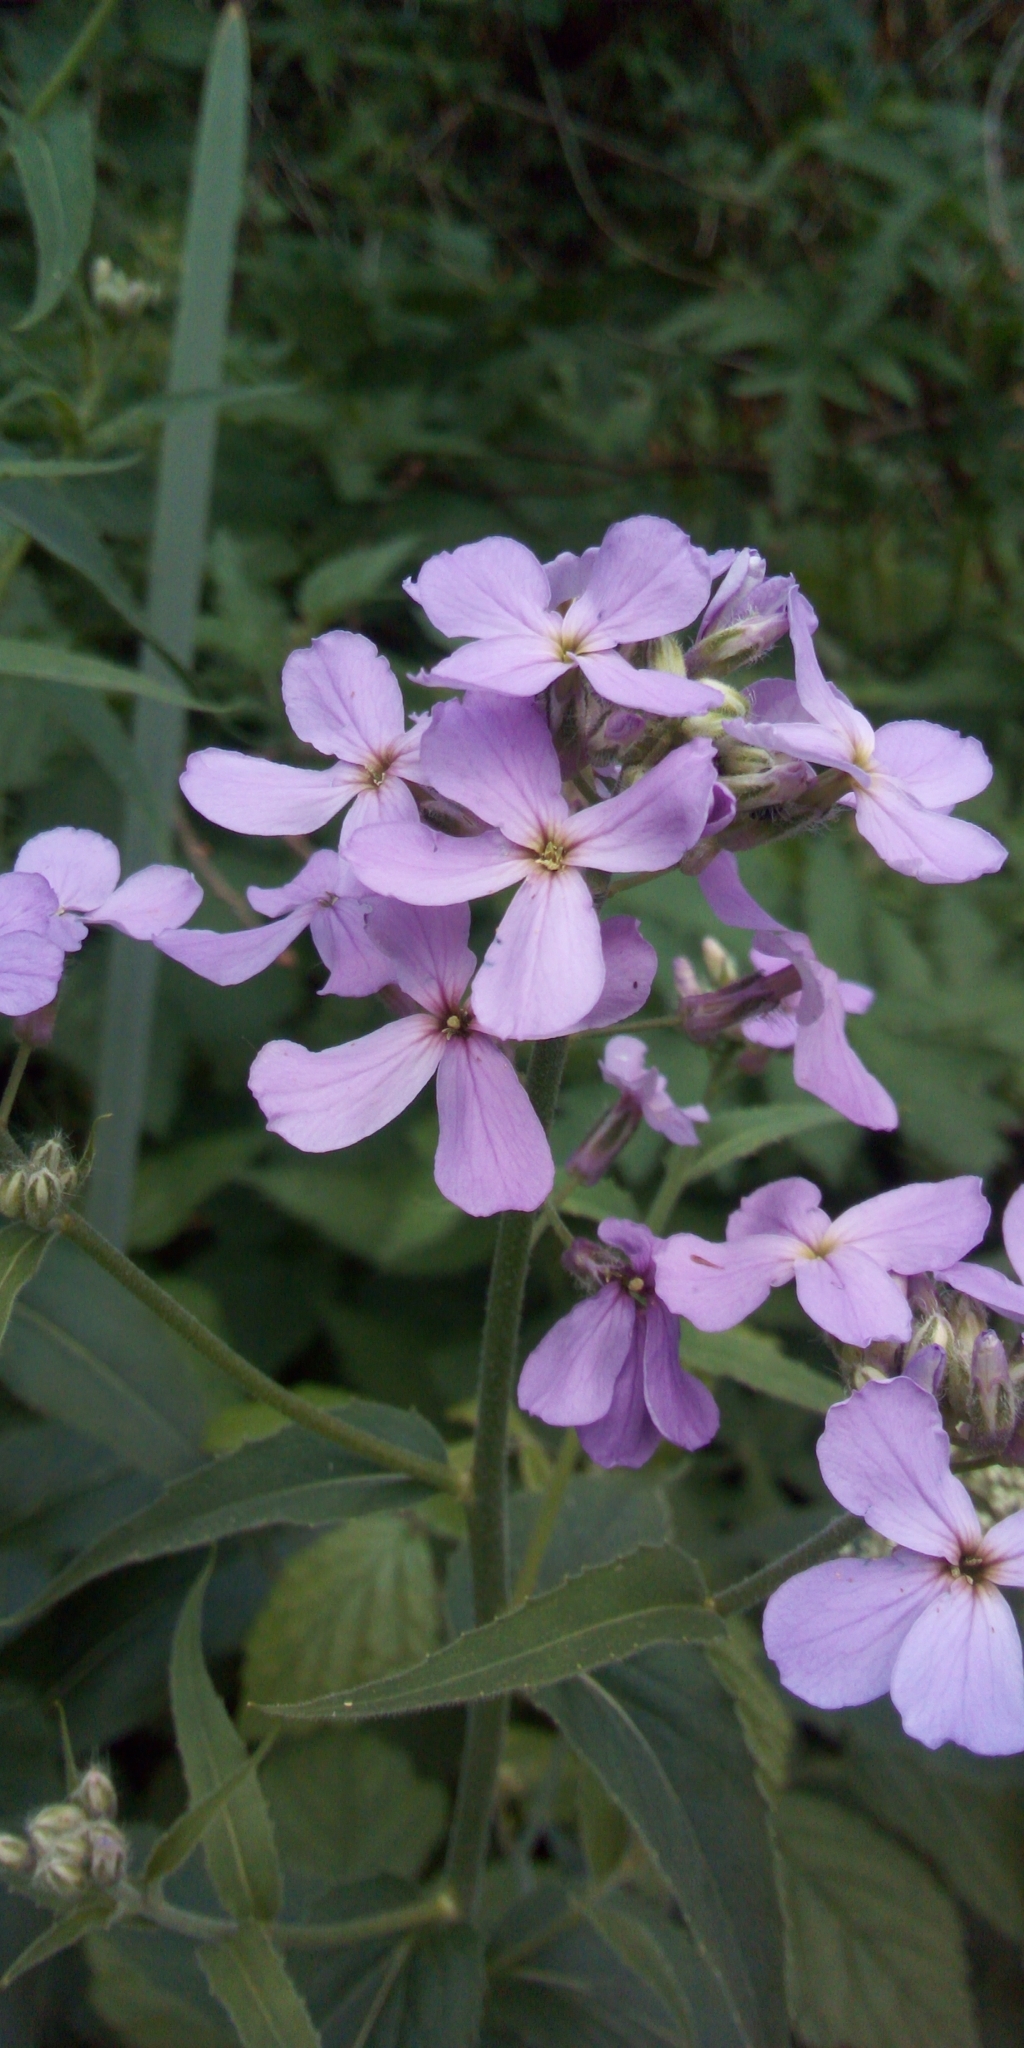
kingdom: Plantae
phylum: Tracheophyta
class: Magnoliopsida
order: Brassicales
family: Brassicaceae
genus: Hesperis
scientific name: Hesperis matronalis
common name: Dame's-violet
